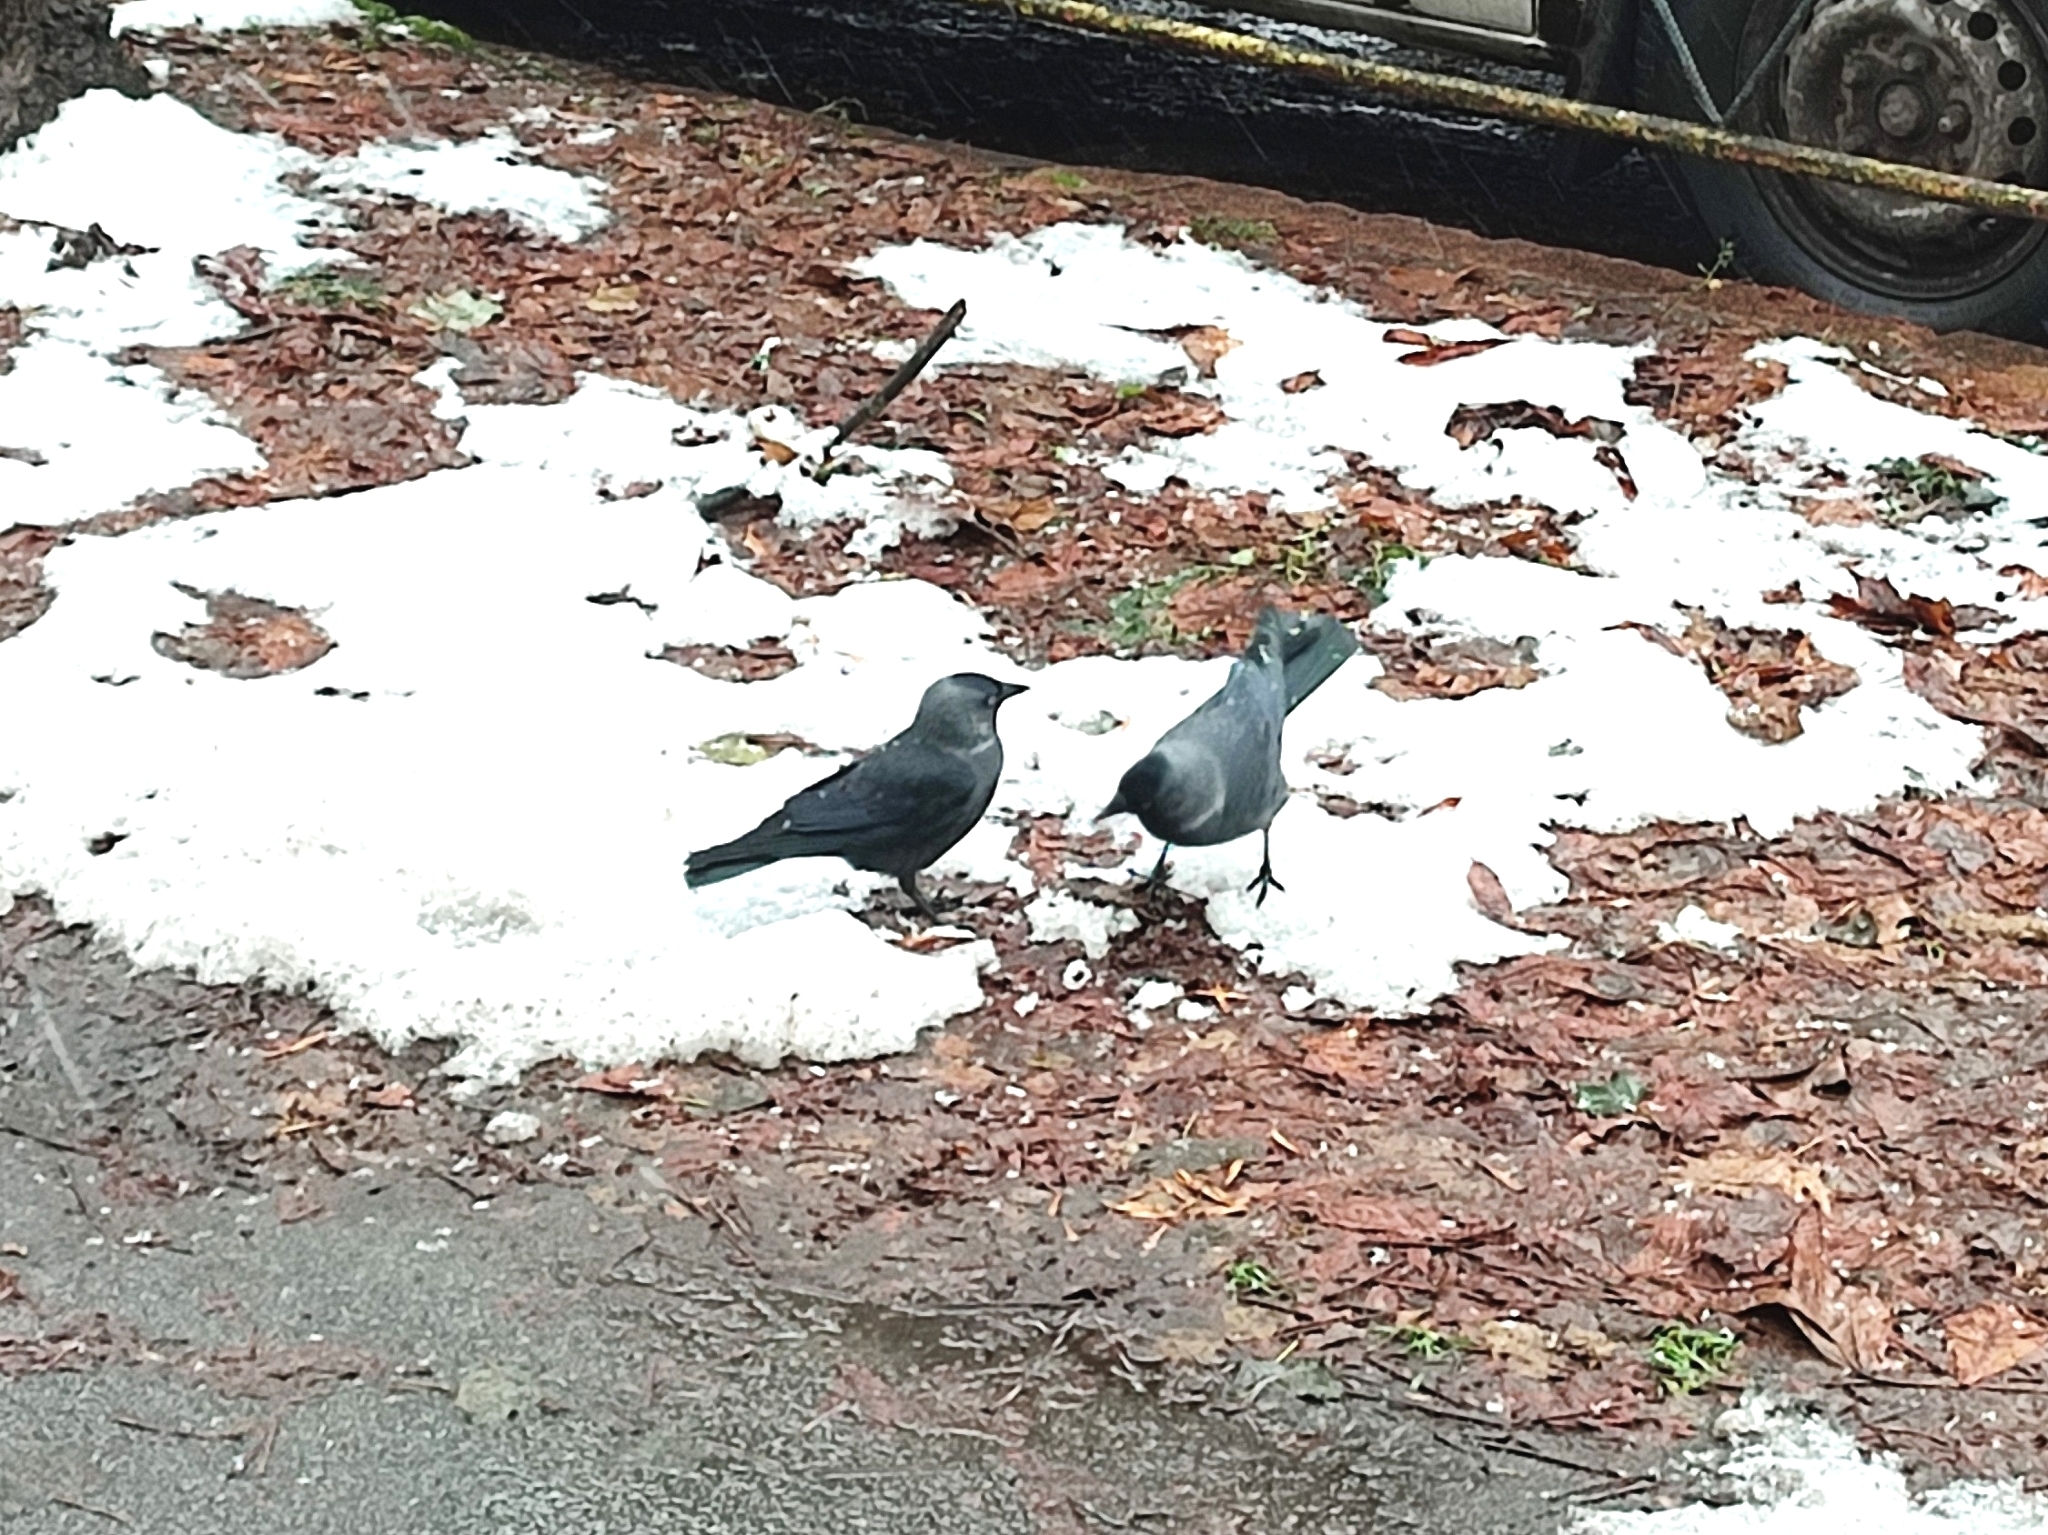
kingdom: Animalia
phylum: Chordata
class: Aves
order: Passeriformes
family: Corvidae
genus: Coloeus
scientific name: Coloeus monedula
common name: Western jackdaw
